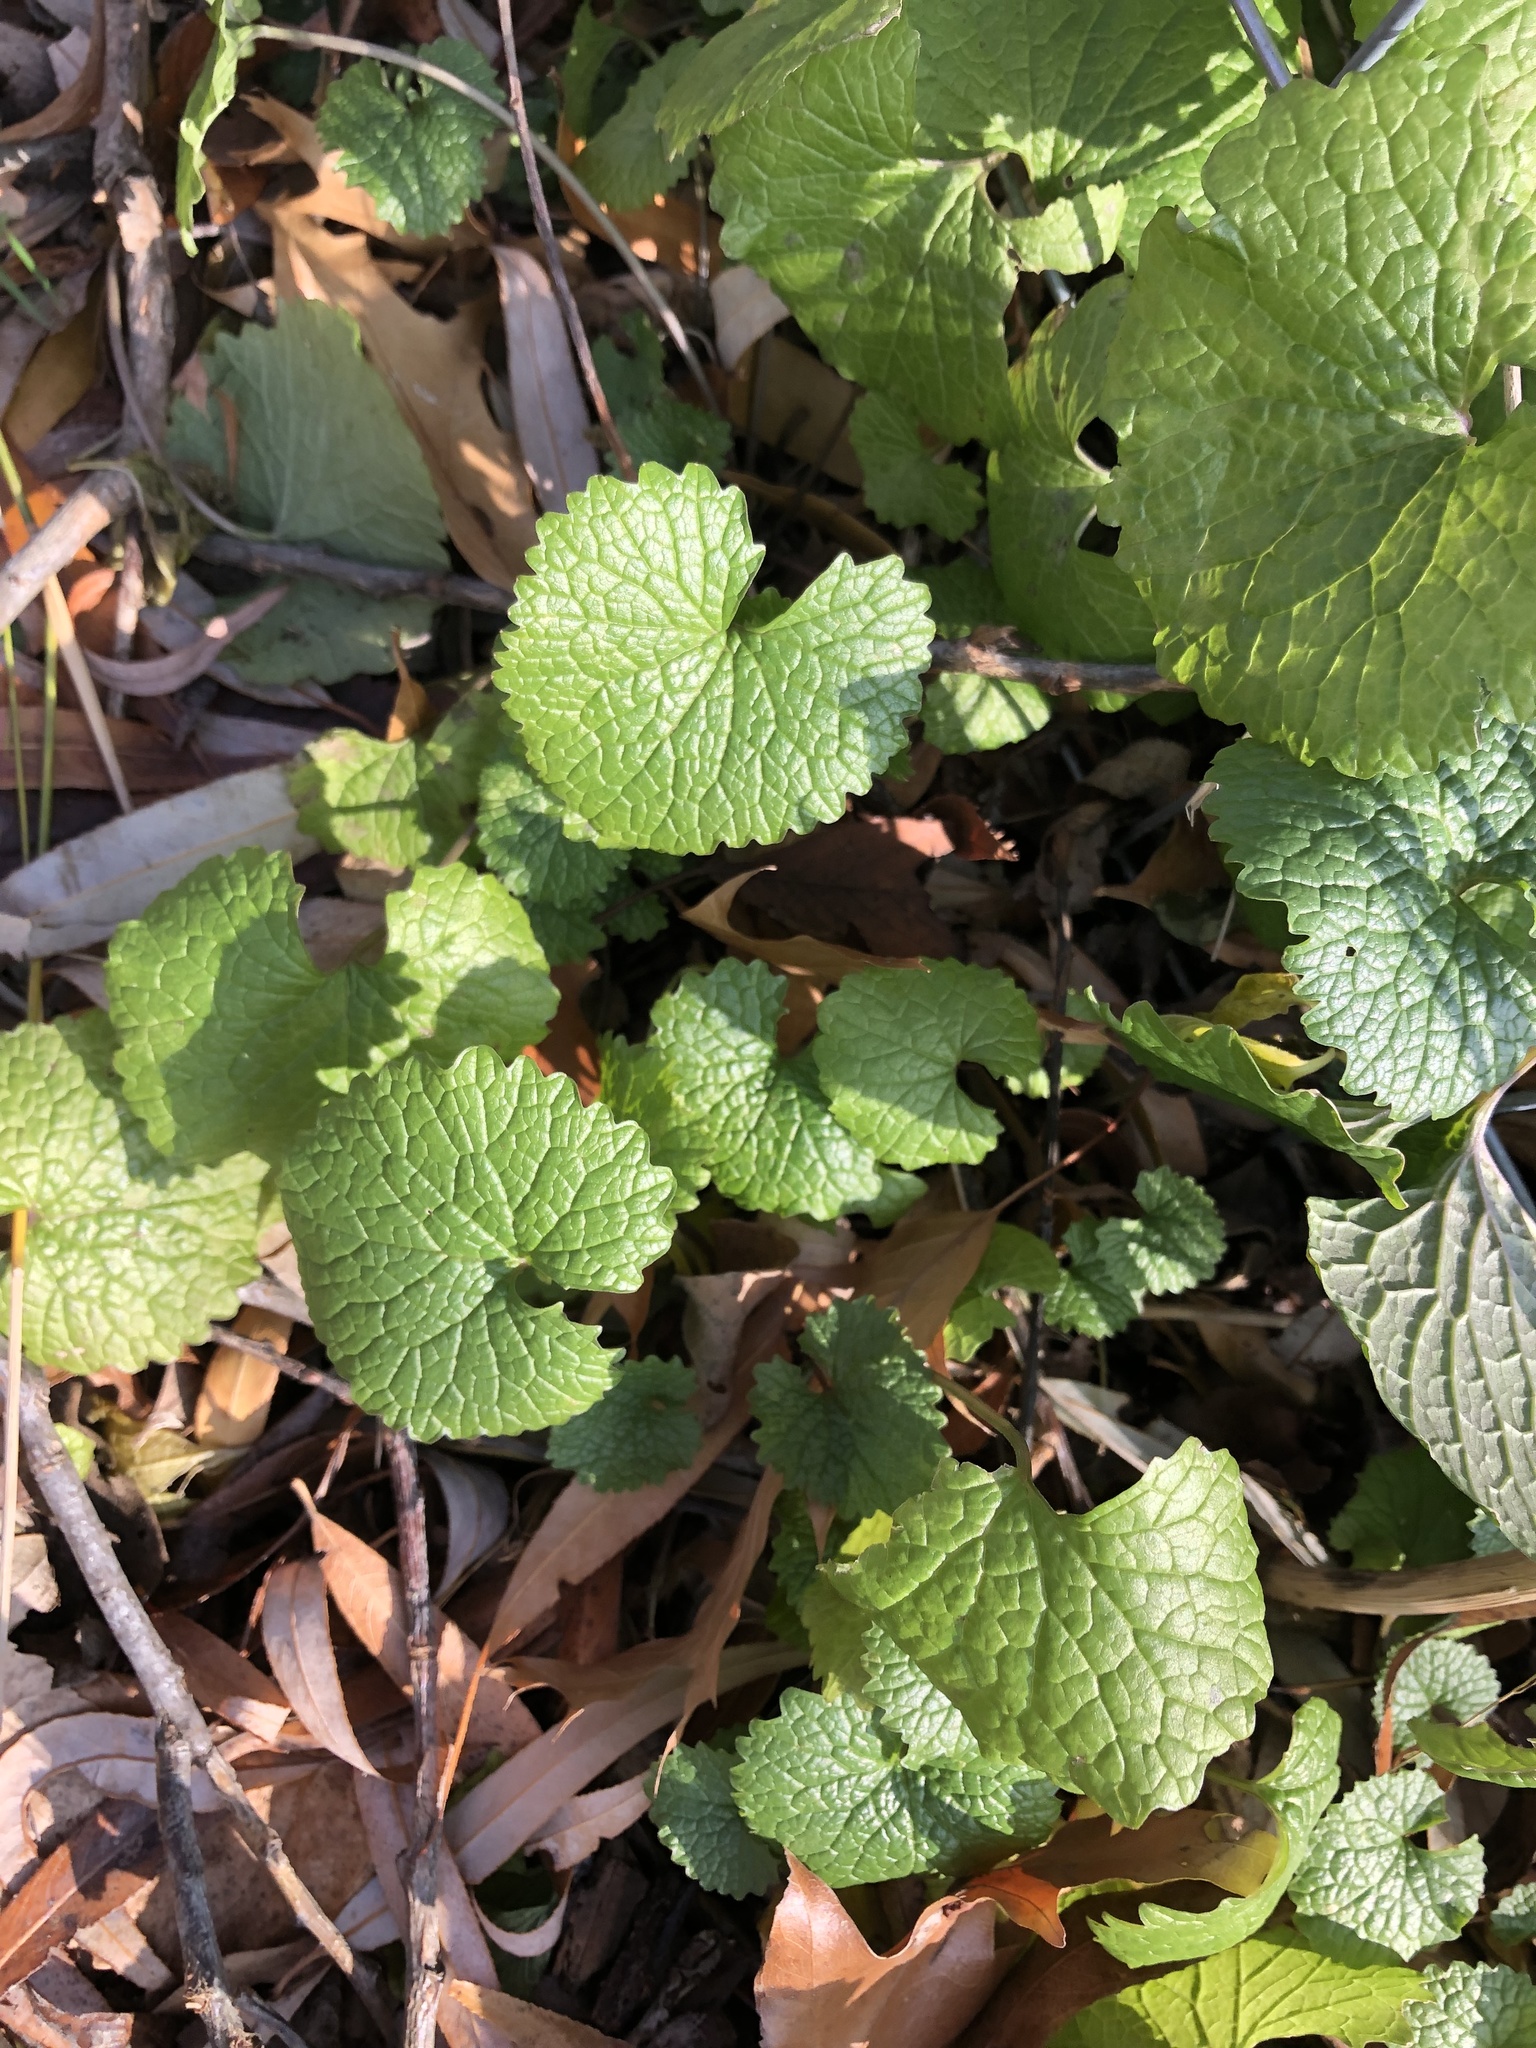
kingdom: Plantae
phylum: Tracheophyta
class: Magnoliopsida
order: Brassicales
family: Brassicaceae
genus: Alliaria
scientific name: Alliaria petiolata
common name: Garlic mustard
